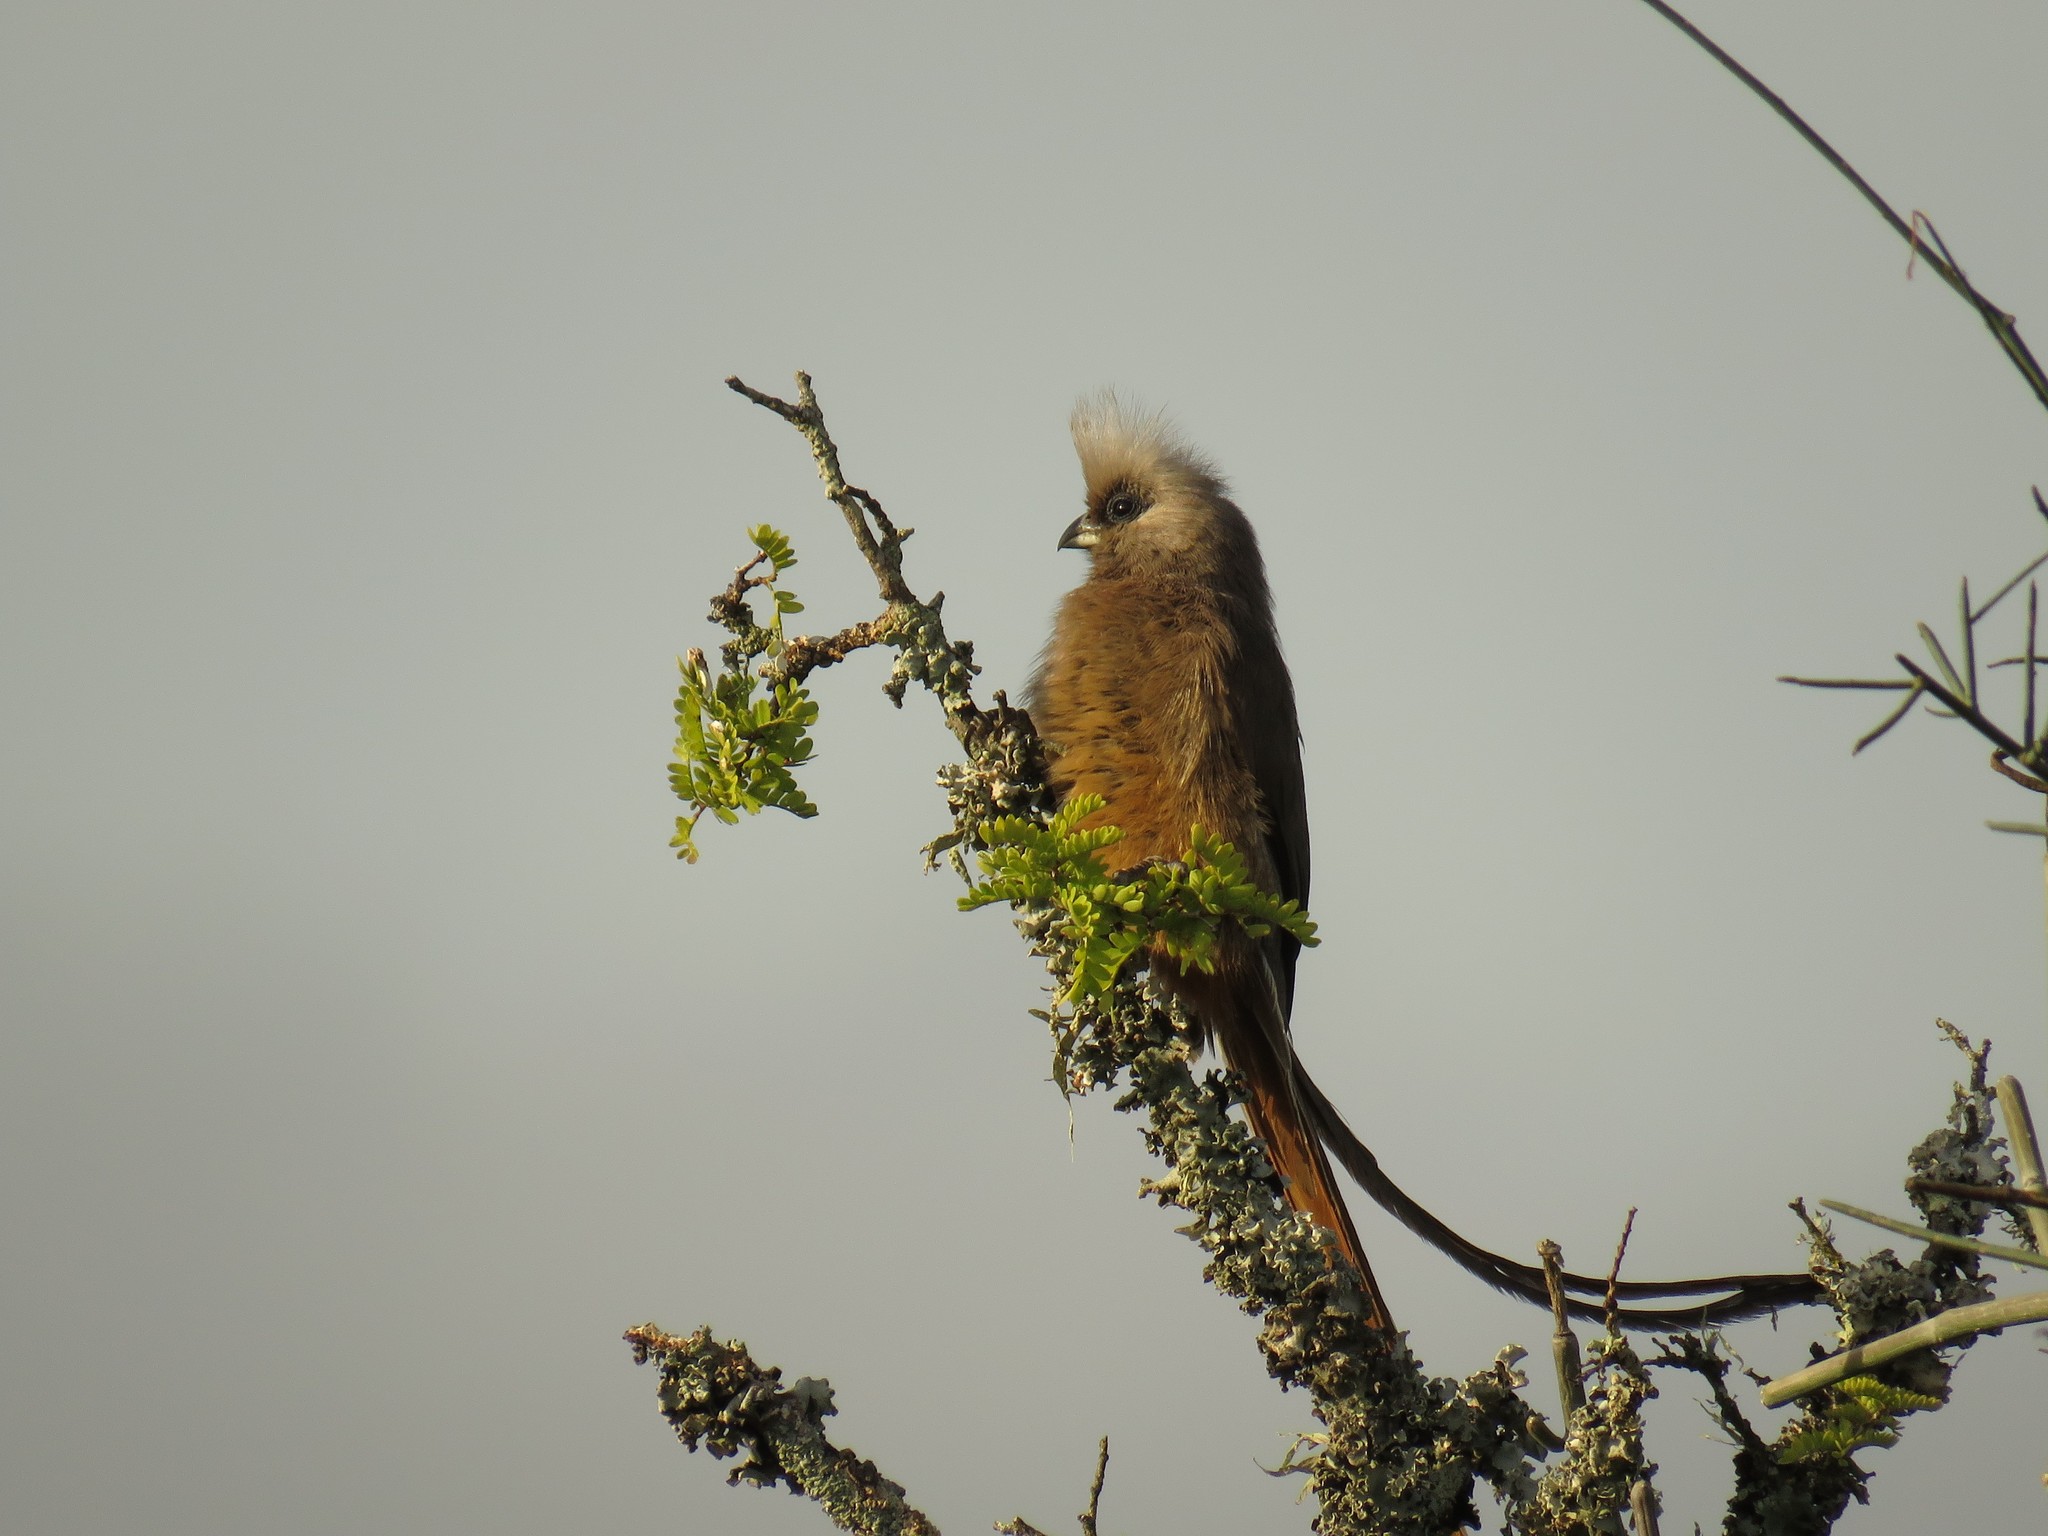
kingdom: Animalia
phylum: Chordata
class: Aves
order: Coliiformes
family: Coliidae
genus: Colius
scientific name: Colius striatus
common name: Speckled mousebird
